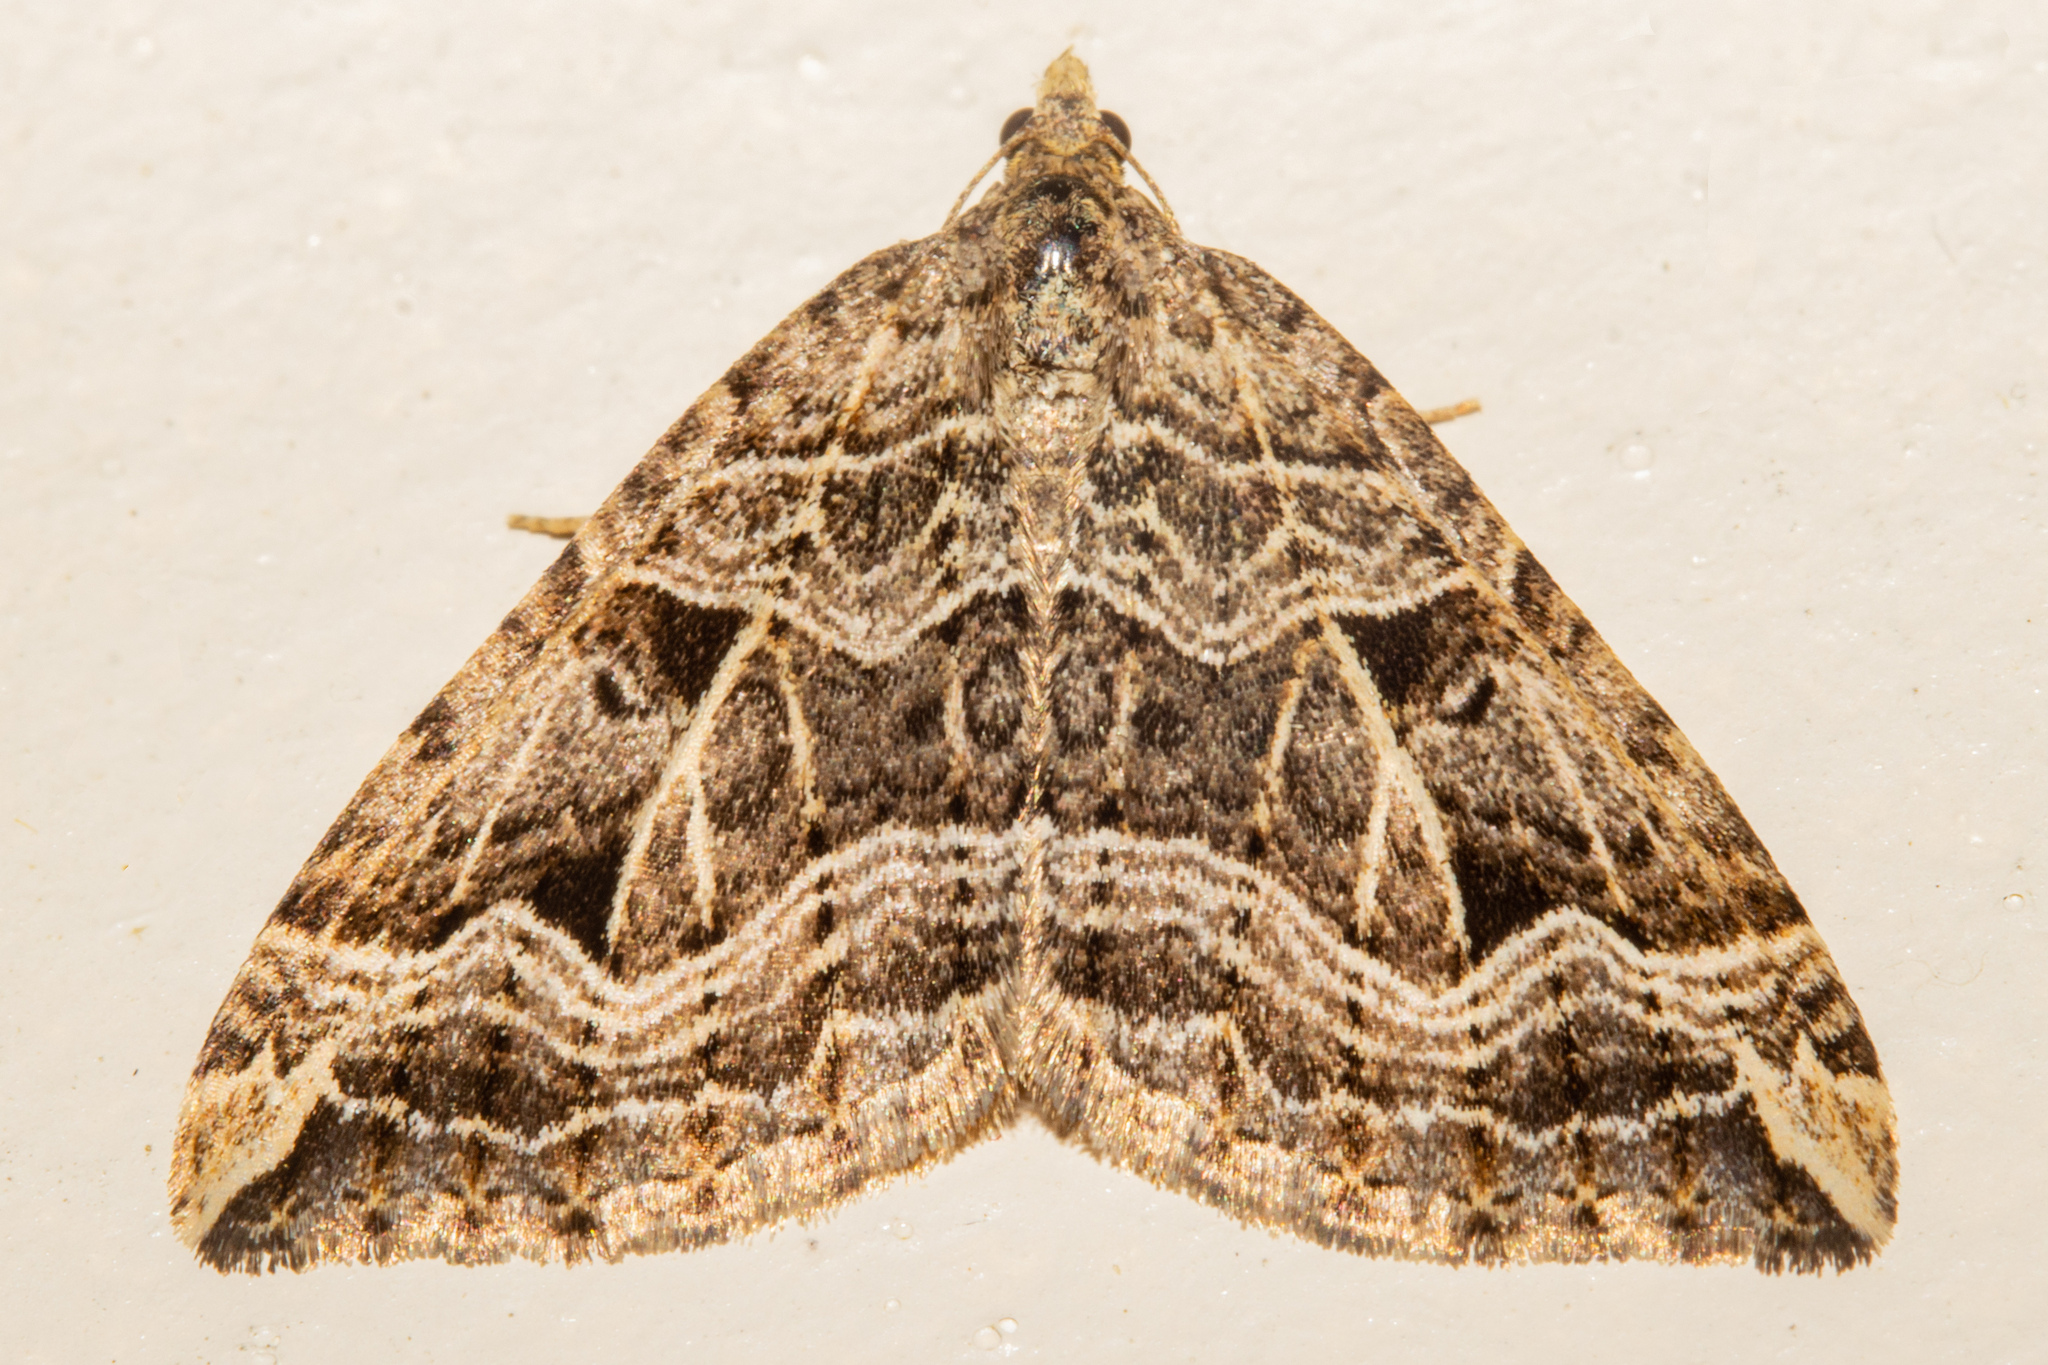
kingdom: Animalia
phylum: Arthropoda
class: Insecta
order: Lepidoptera
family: Geometridae
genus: Xanthorhoe
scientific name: Xanthorhoe semifissata
